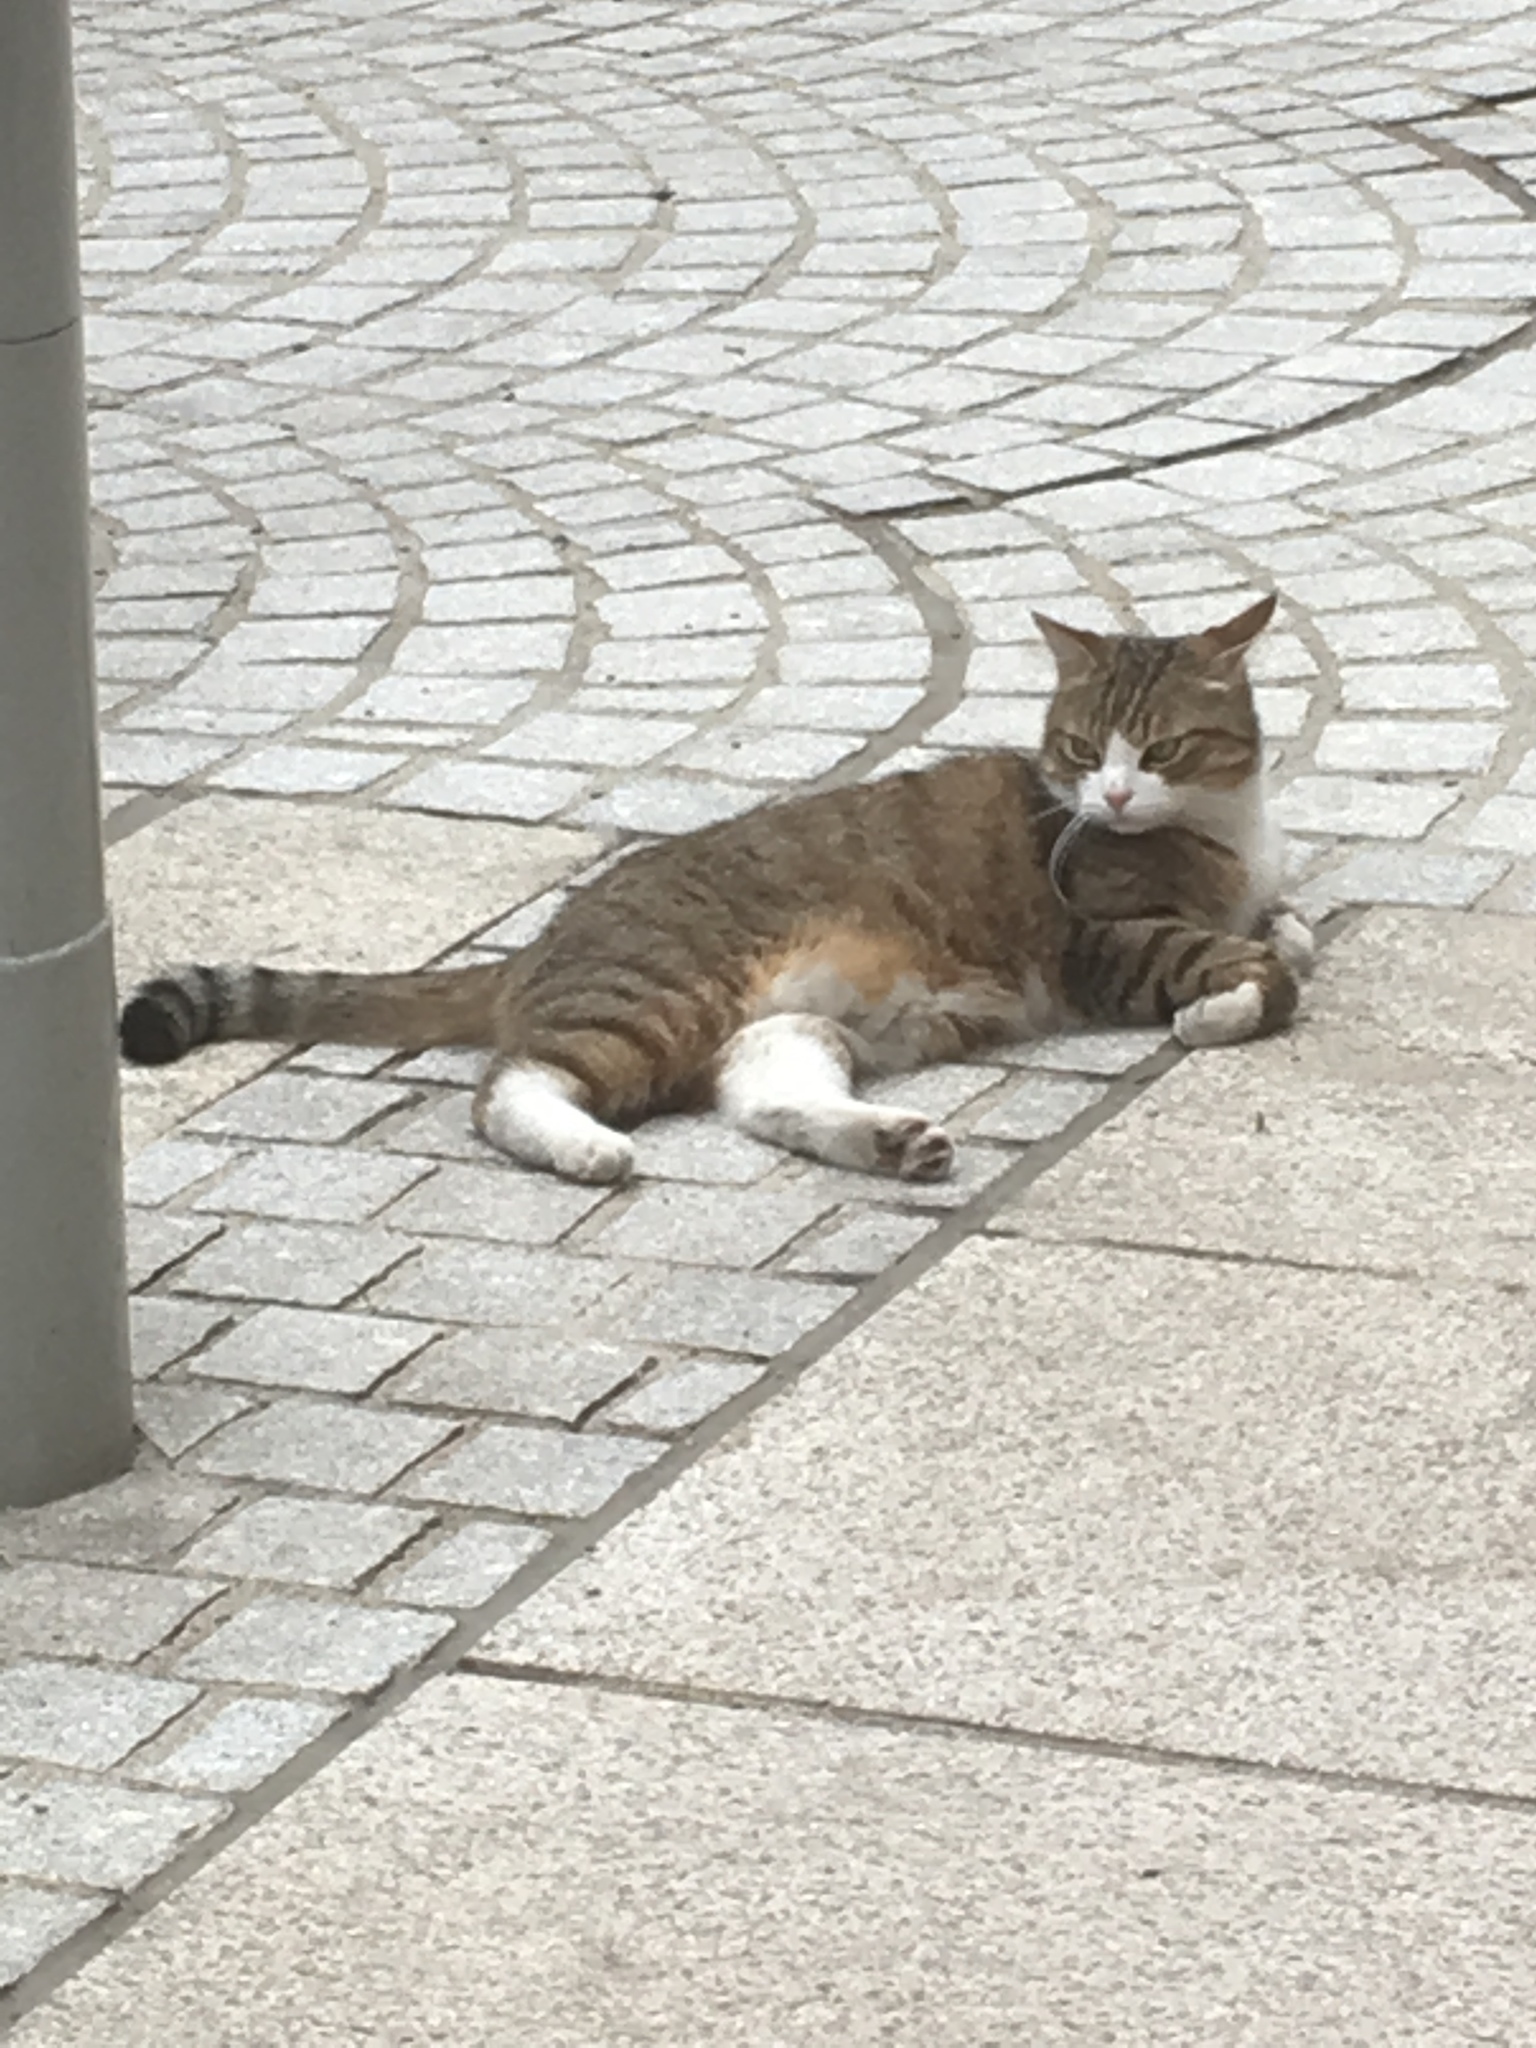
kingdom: Animalia
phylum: Chordata
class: Mammalia
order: Carnivora
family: Felidae
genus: Felis
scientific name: Felis catus
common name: Domestic cat
